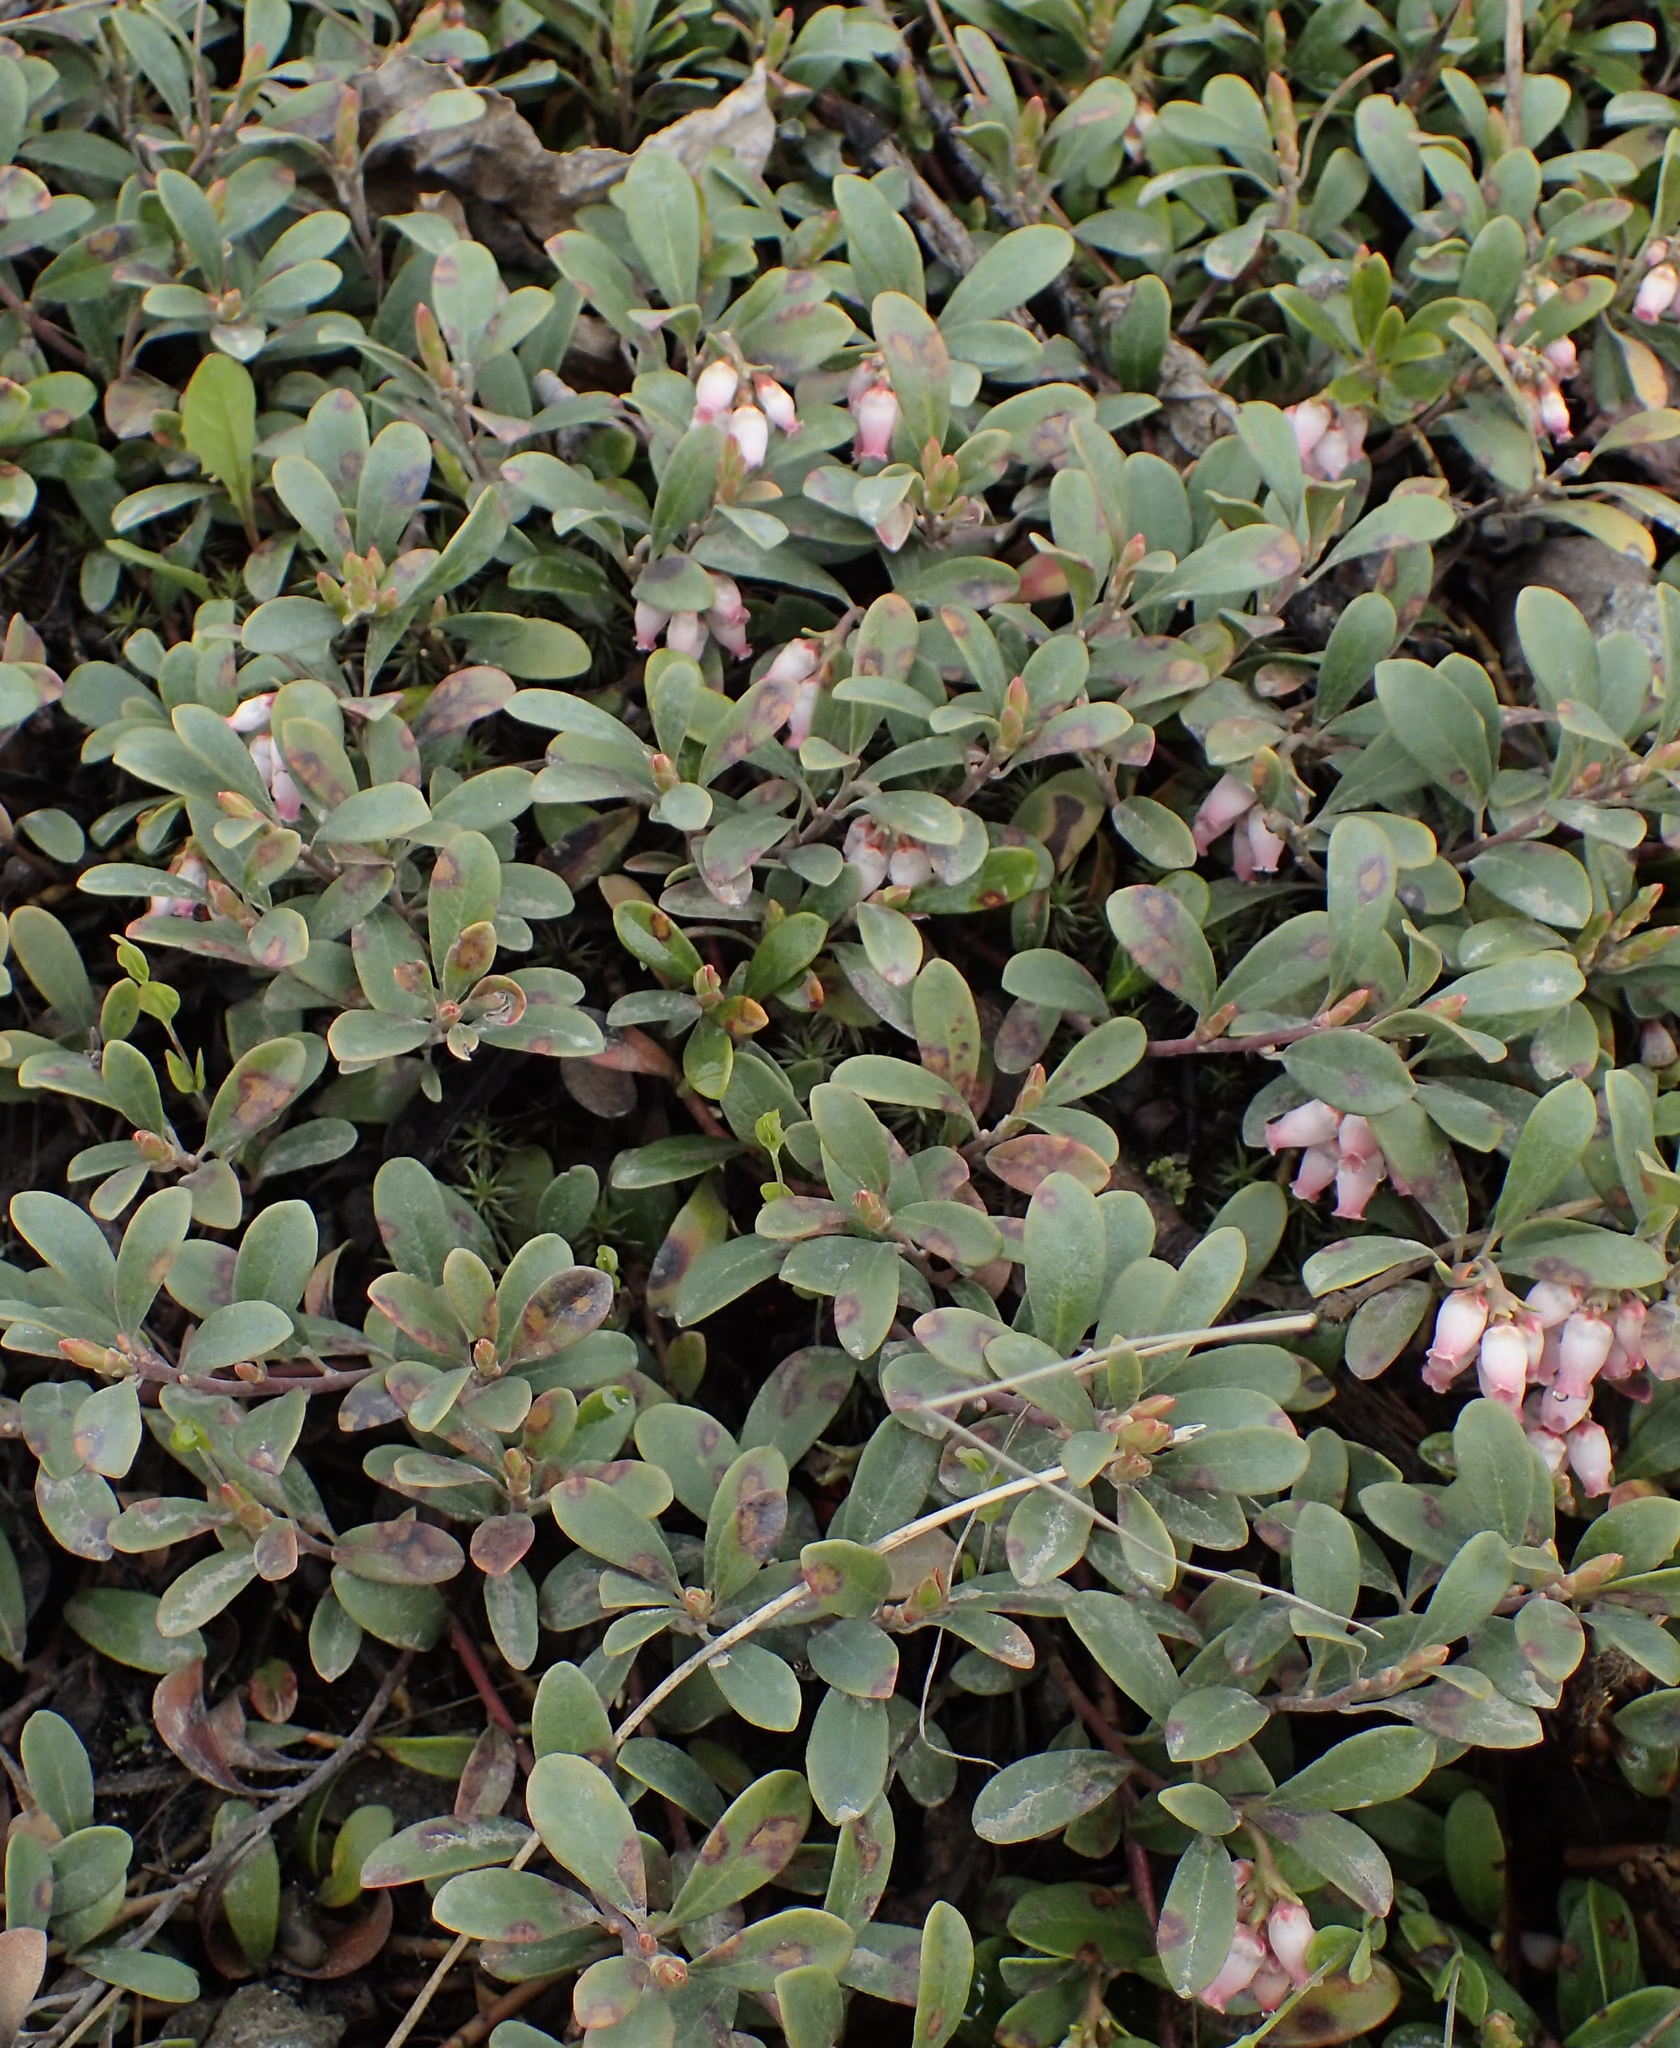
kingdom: Plantae
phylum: Tracheophyta
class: Magnoliopsida
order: Ericales
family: Ericaceae
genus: Arctostaphylos
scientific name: Arctostaphylos uva-ursi
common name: Bearberry
